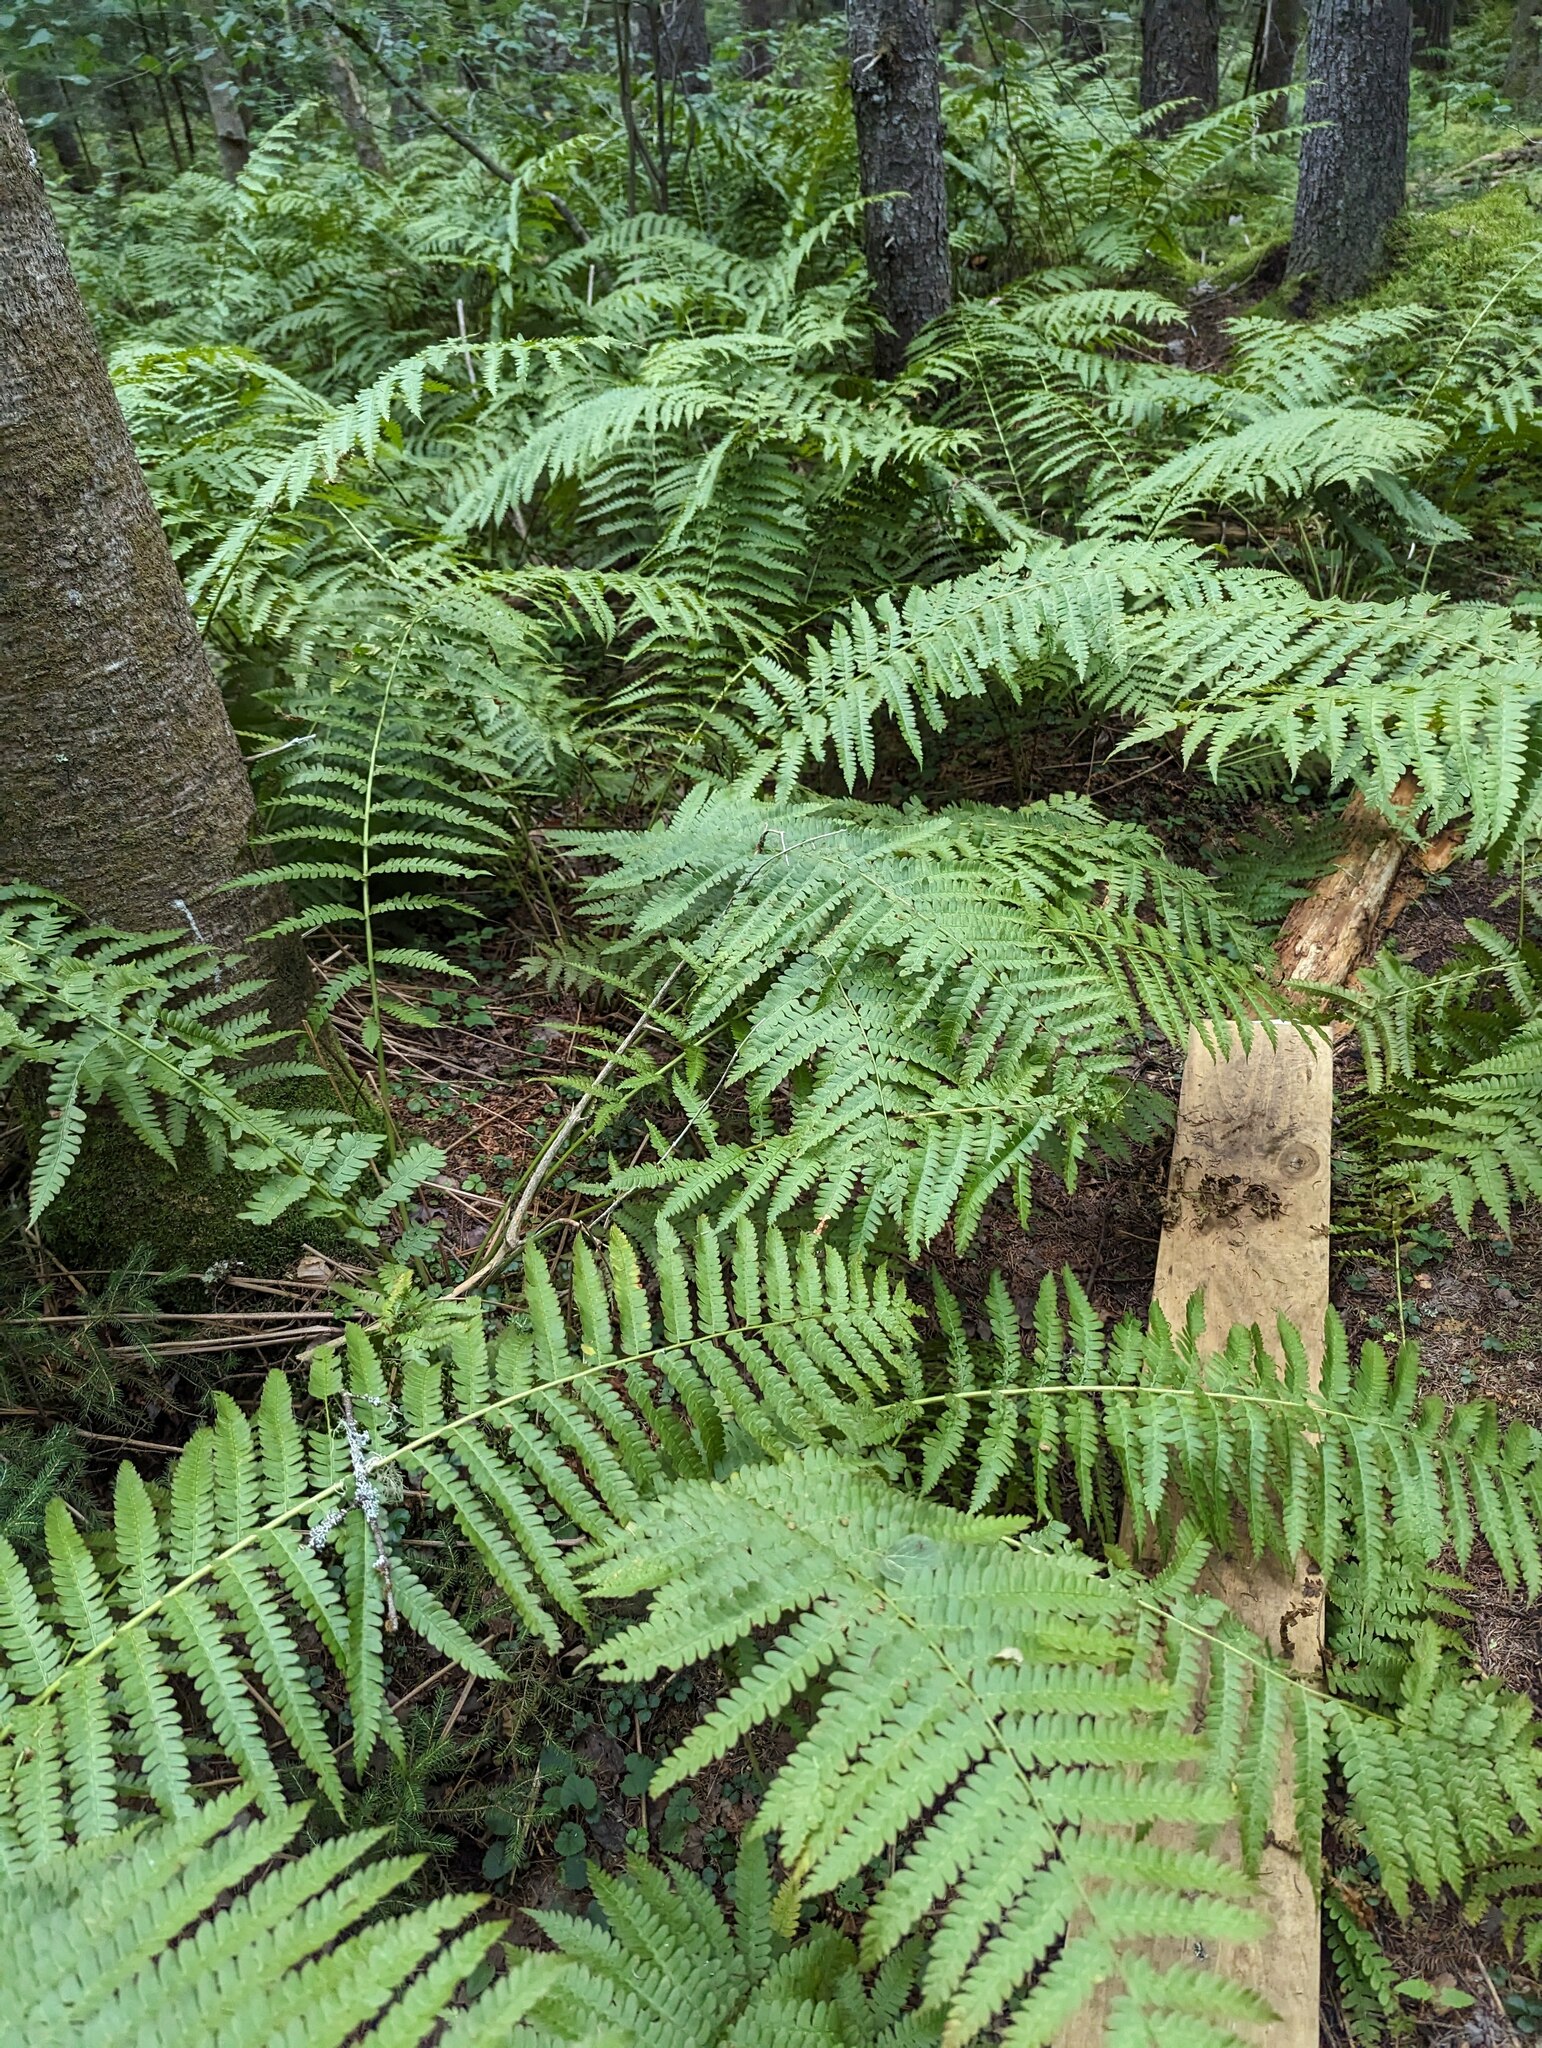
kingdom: Plantae
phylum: Tracheophyta
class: Polypodiopsida
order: Osmundales
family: Osmundaceae
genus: Osmundastrum
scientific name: Osmundastrum cinnamomeum
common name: Cinnamon fern
